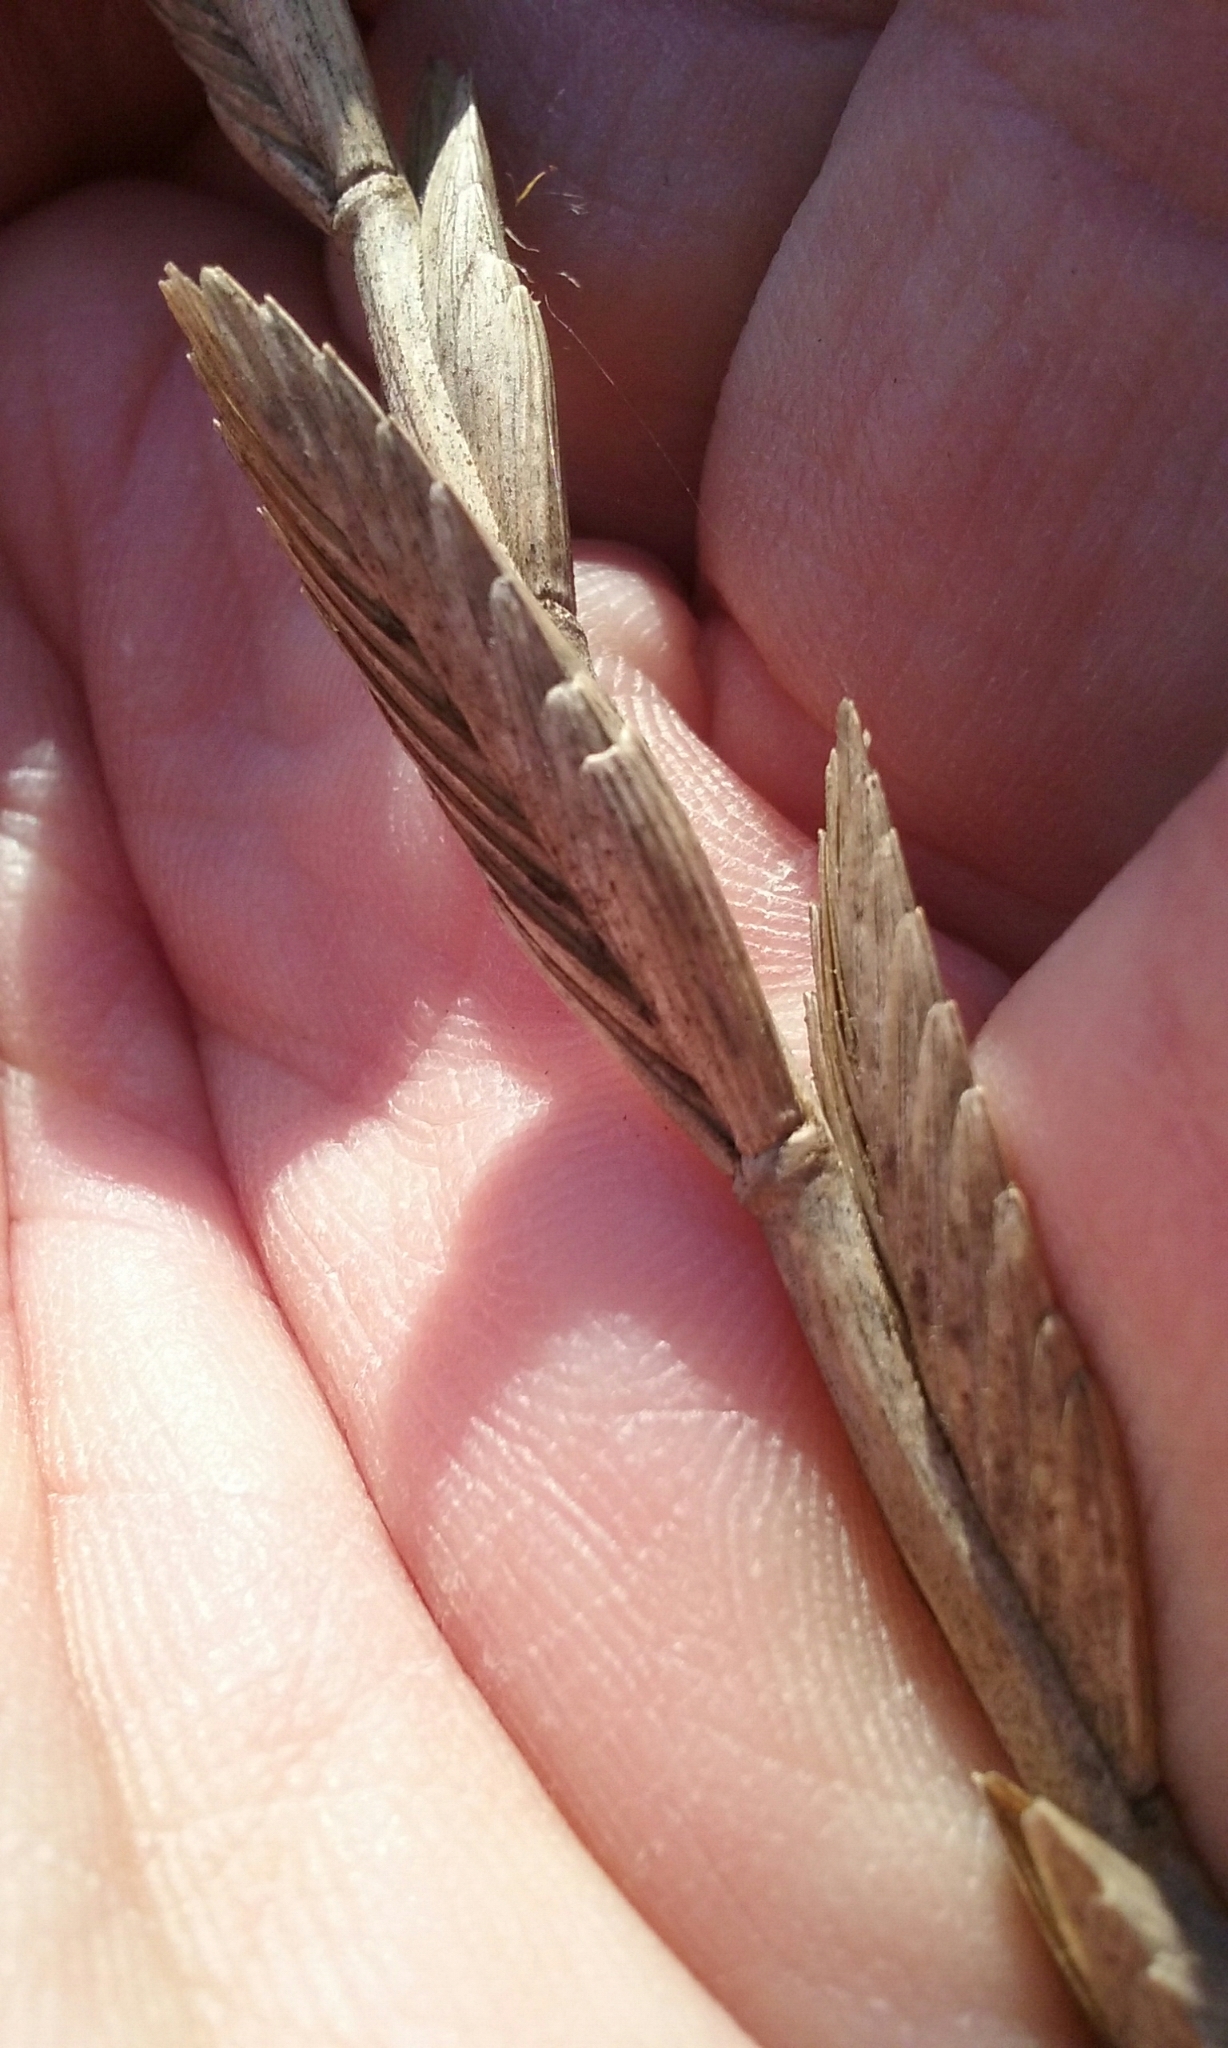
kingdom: Plantae
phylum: Tracheophyta
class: Liliopsida
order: Poales
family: Poaceae
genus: Thinopyrum
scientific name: Thinopyrum obtusiflorum
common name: Eurasian quackgrass
